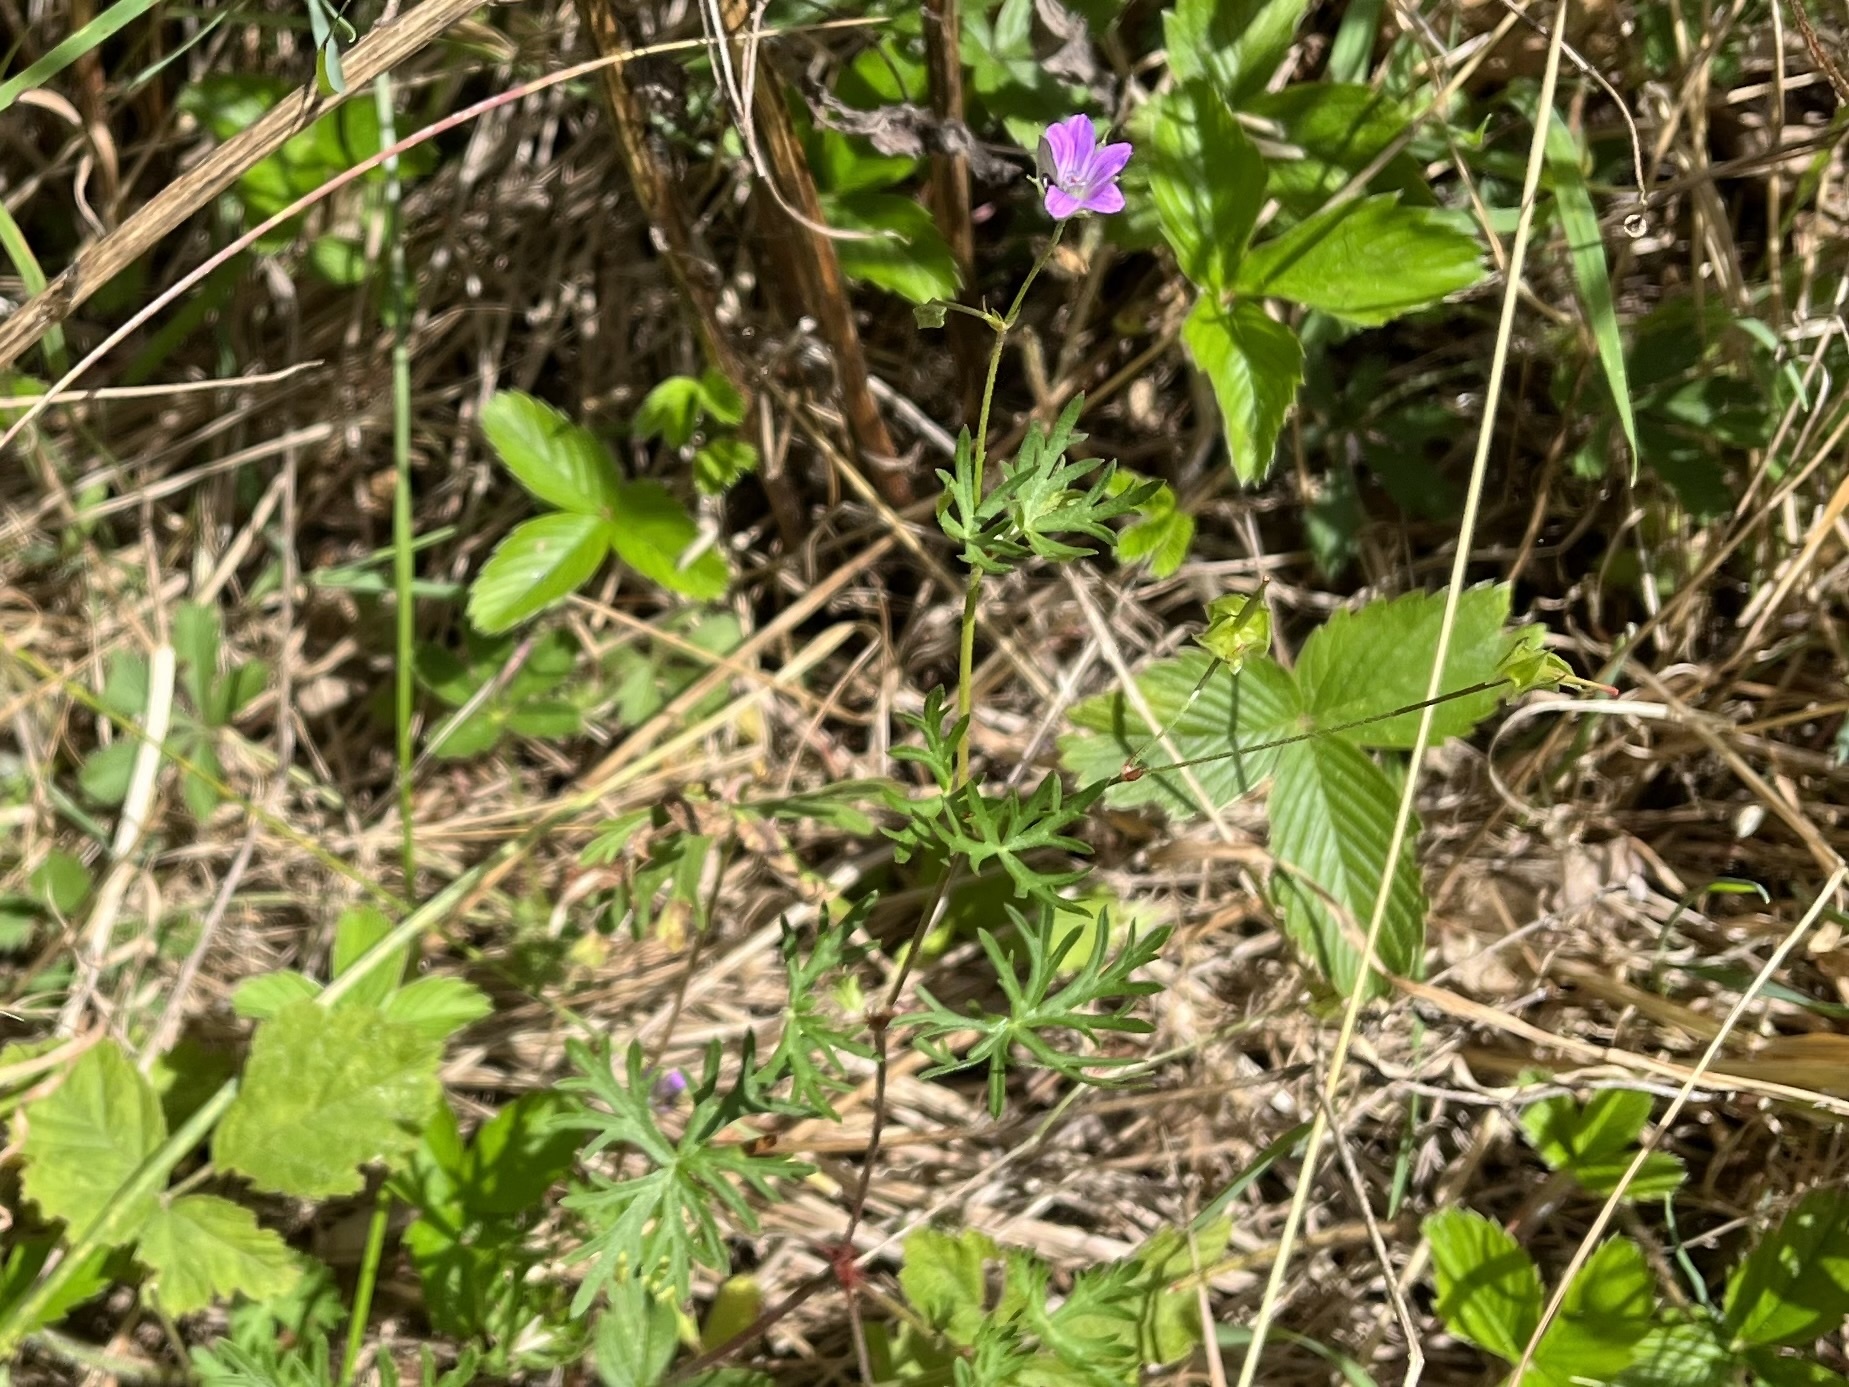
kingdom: Plantae
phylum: Tracheophyta
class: Magnoliopsida
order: Geraniales
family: Geraniaceae
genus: Geranium
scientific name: Geranium columbinum
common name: Long-stalked crane's-bill
